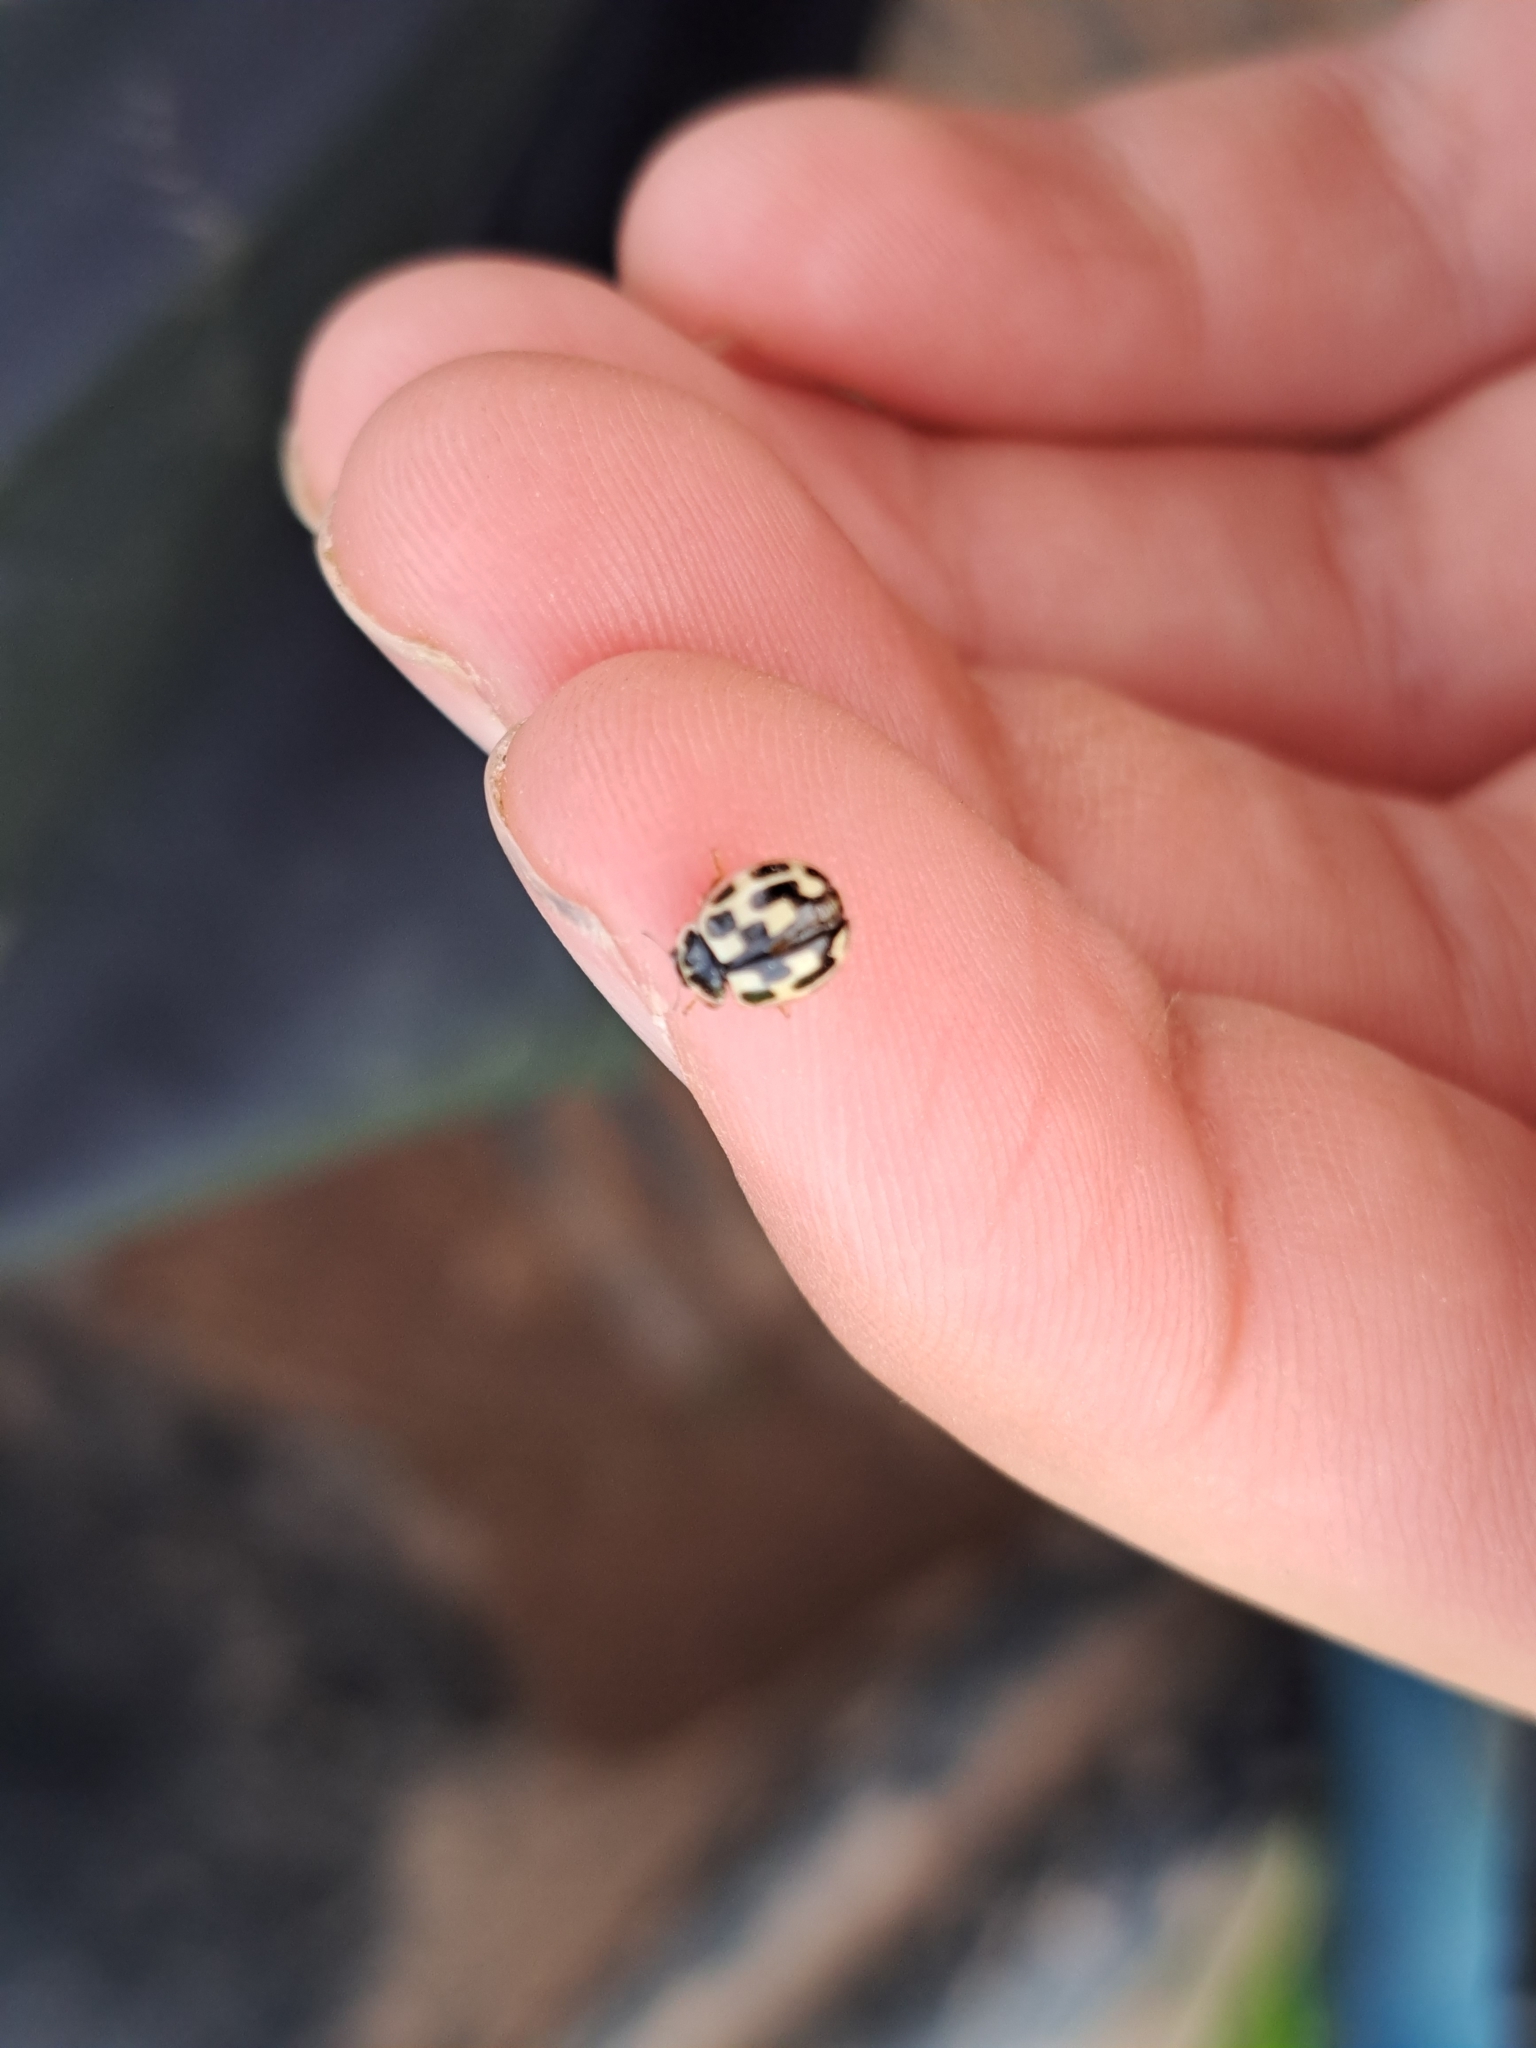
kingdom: Animalia
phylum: Arthropoda
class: Insecta
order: Coleoptera
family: Coccinellidae
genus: Propylaea
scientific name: Propylaea quatuordecimpunctata
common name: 14-spotted ladybird beetle
